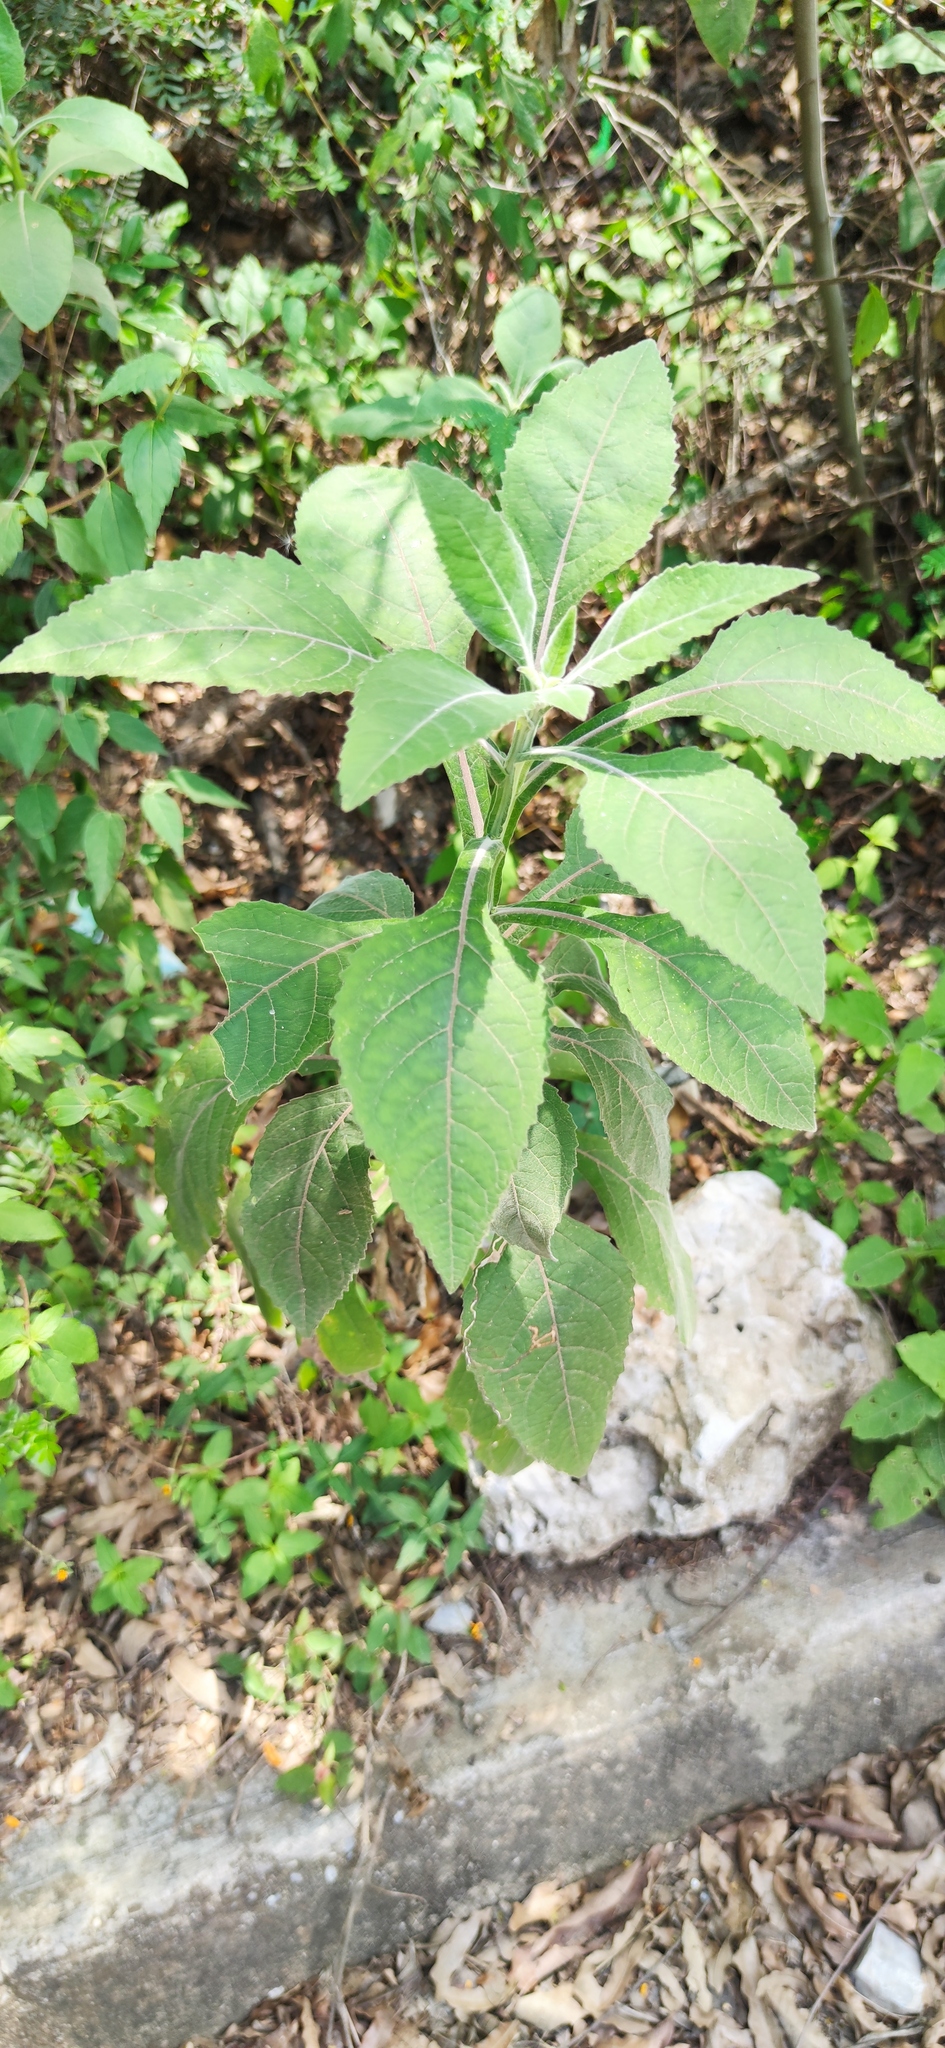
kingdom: Plantae
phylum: Tracheophyta
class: Magnoliopsida
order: Asterales
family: Asteraceae
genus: Verbesina
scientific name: Verbesina microptera
